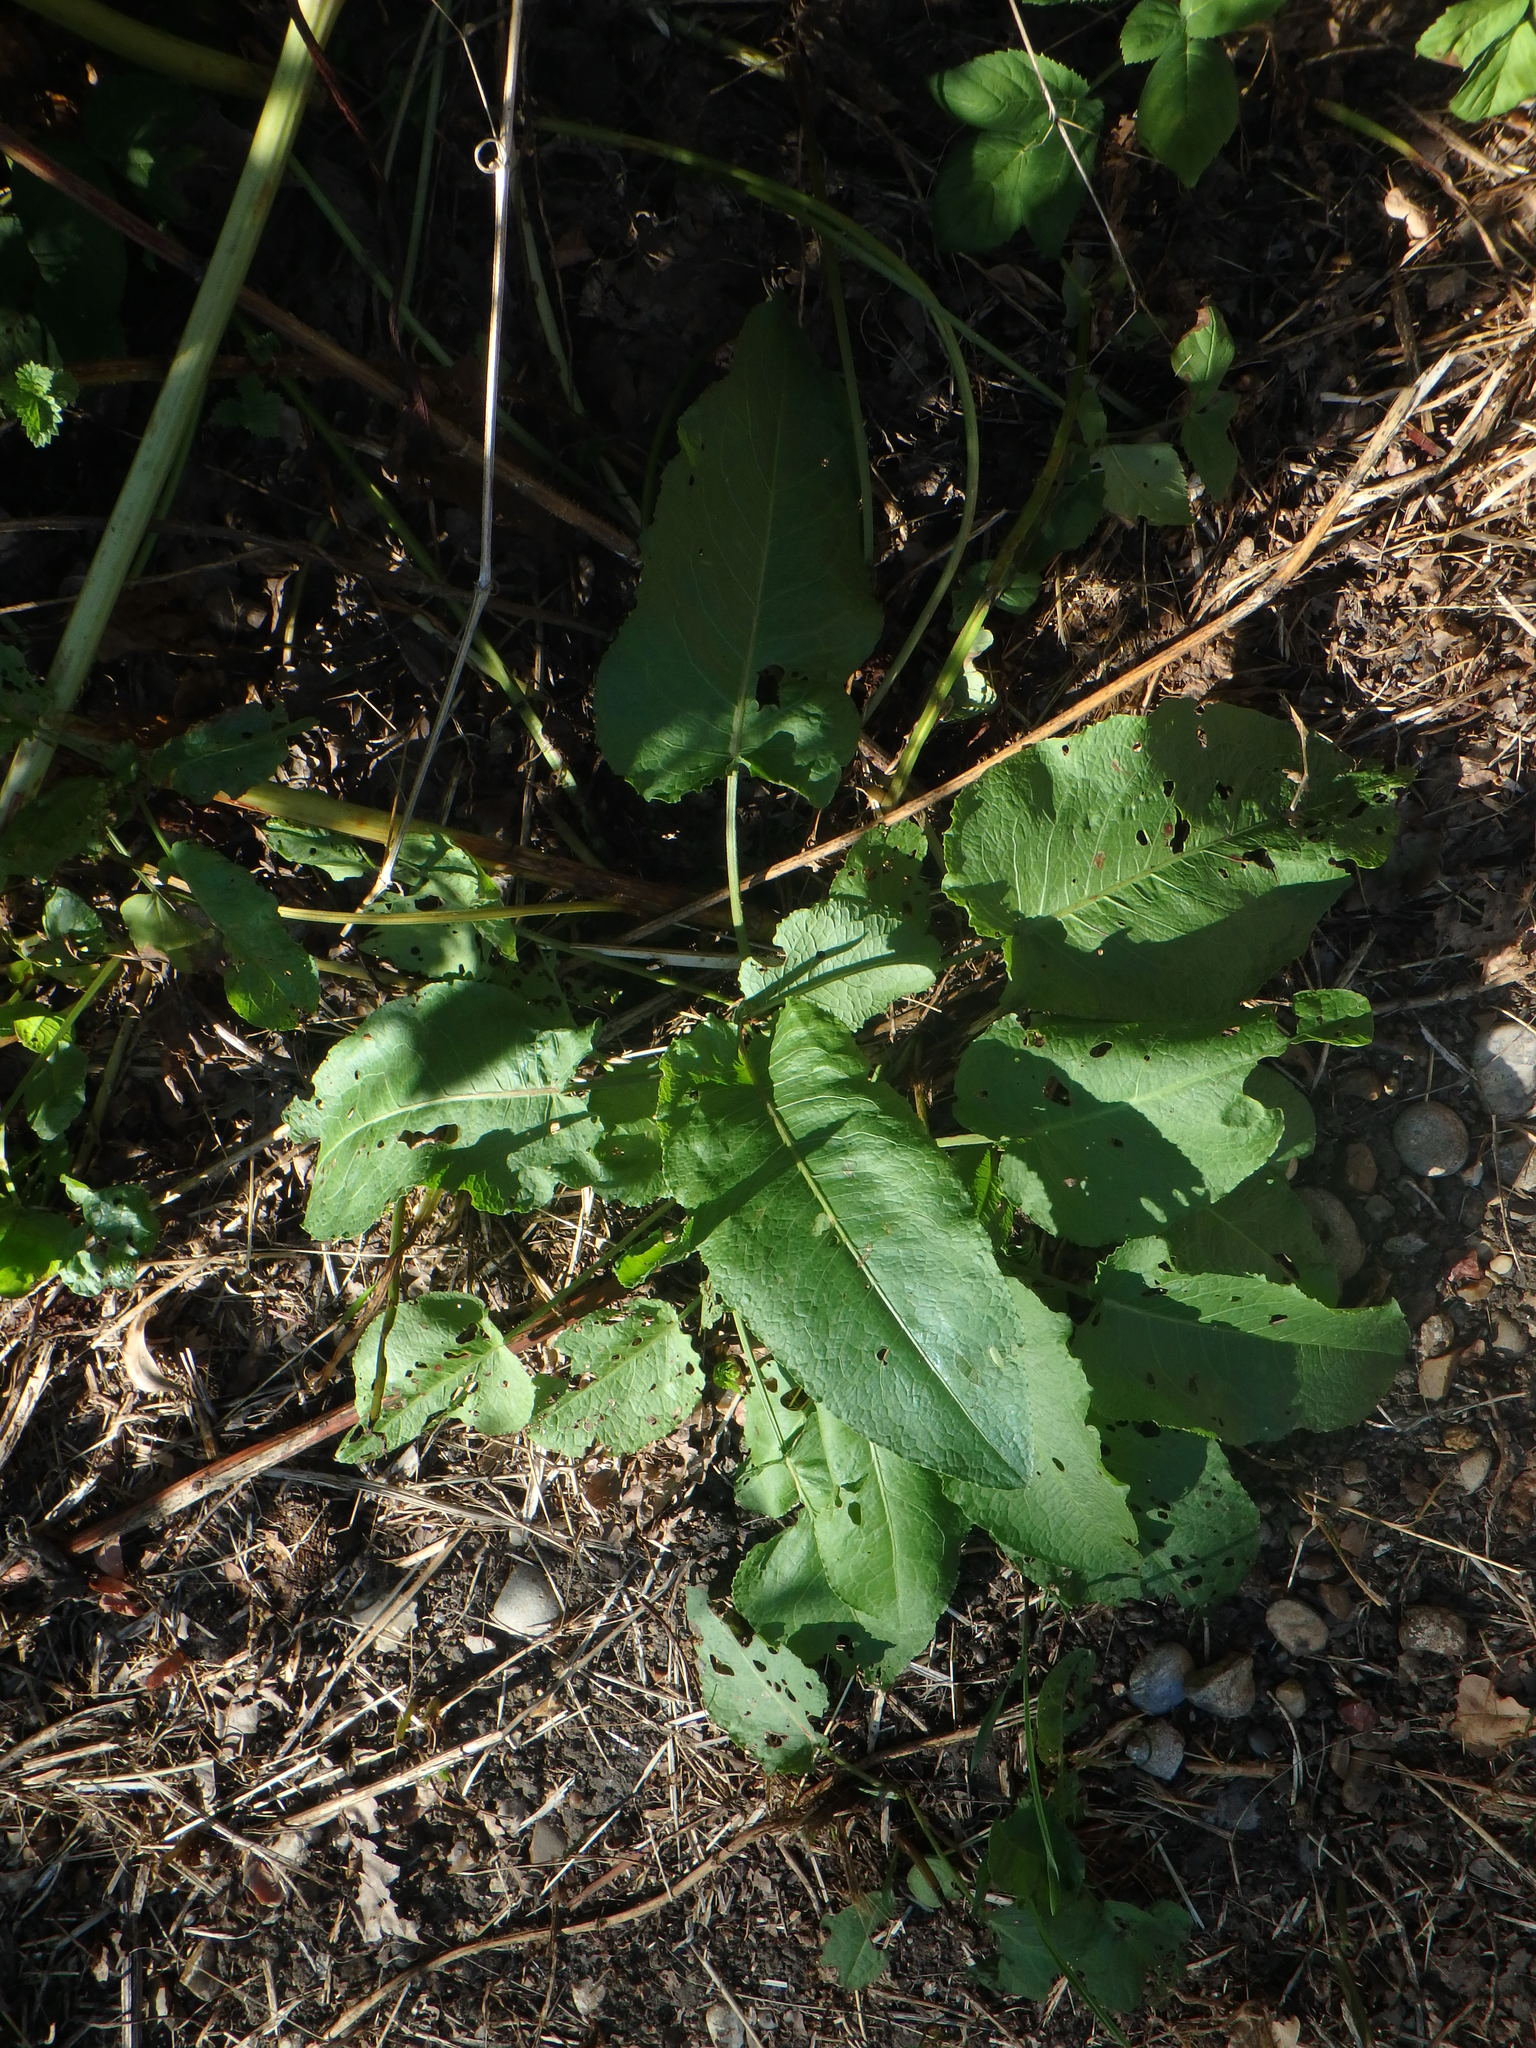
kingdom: Plantae
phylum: Tracheophyta
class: Magnoliopsida
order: Caryophyllales
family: Polygonaceae
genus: Rumex
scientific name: Rumex obtusifolius
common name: Bitter dock
